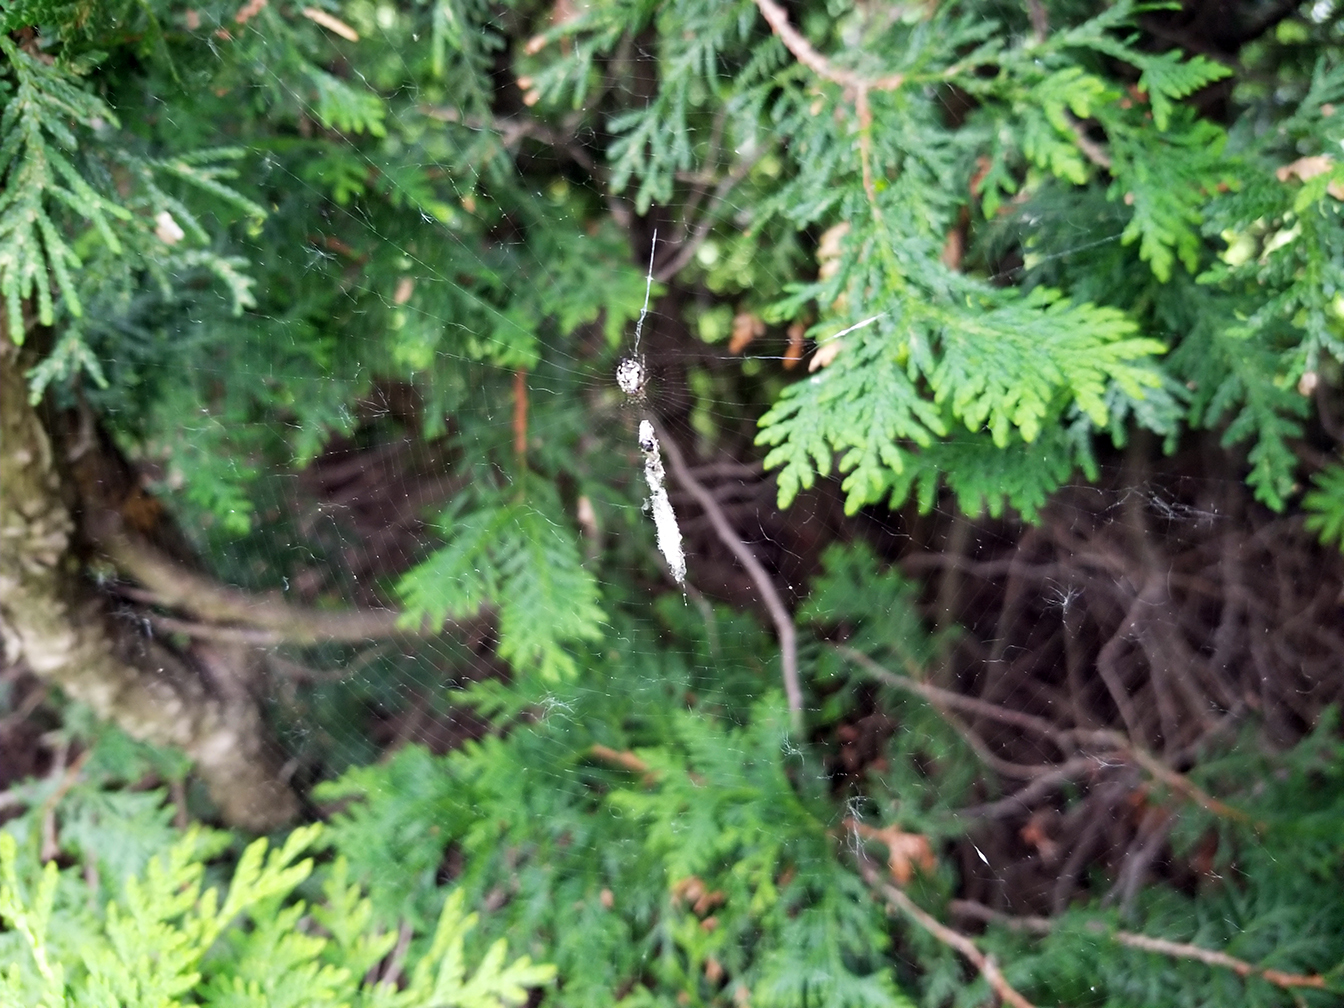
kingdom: Animalia
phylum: Arthropoda
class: Arachnida
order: Araneae
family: Araneidae
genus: Cyclosa
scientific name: Cyclosa conica
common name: Conical trashline orbweaver
